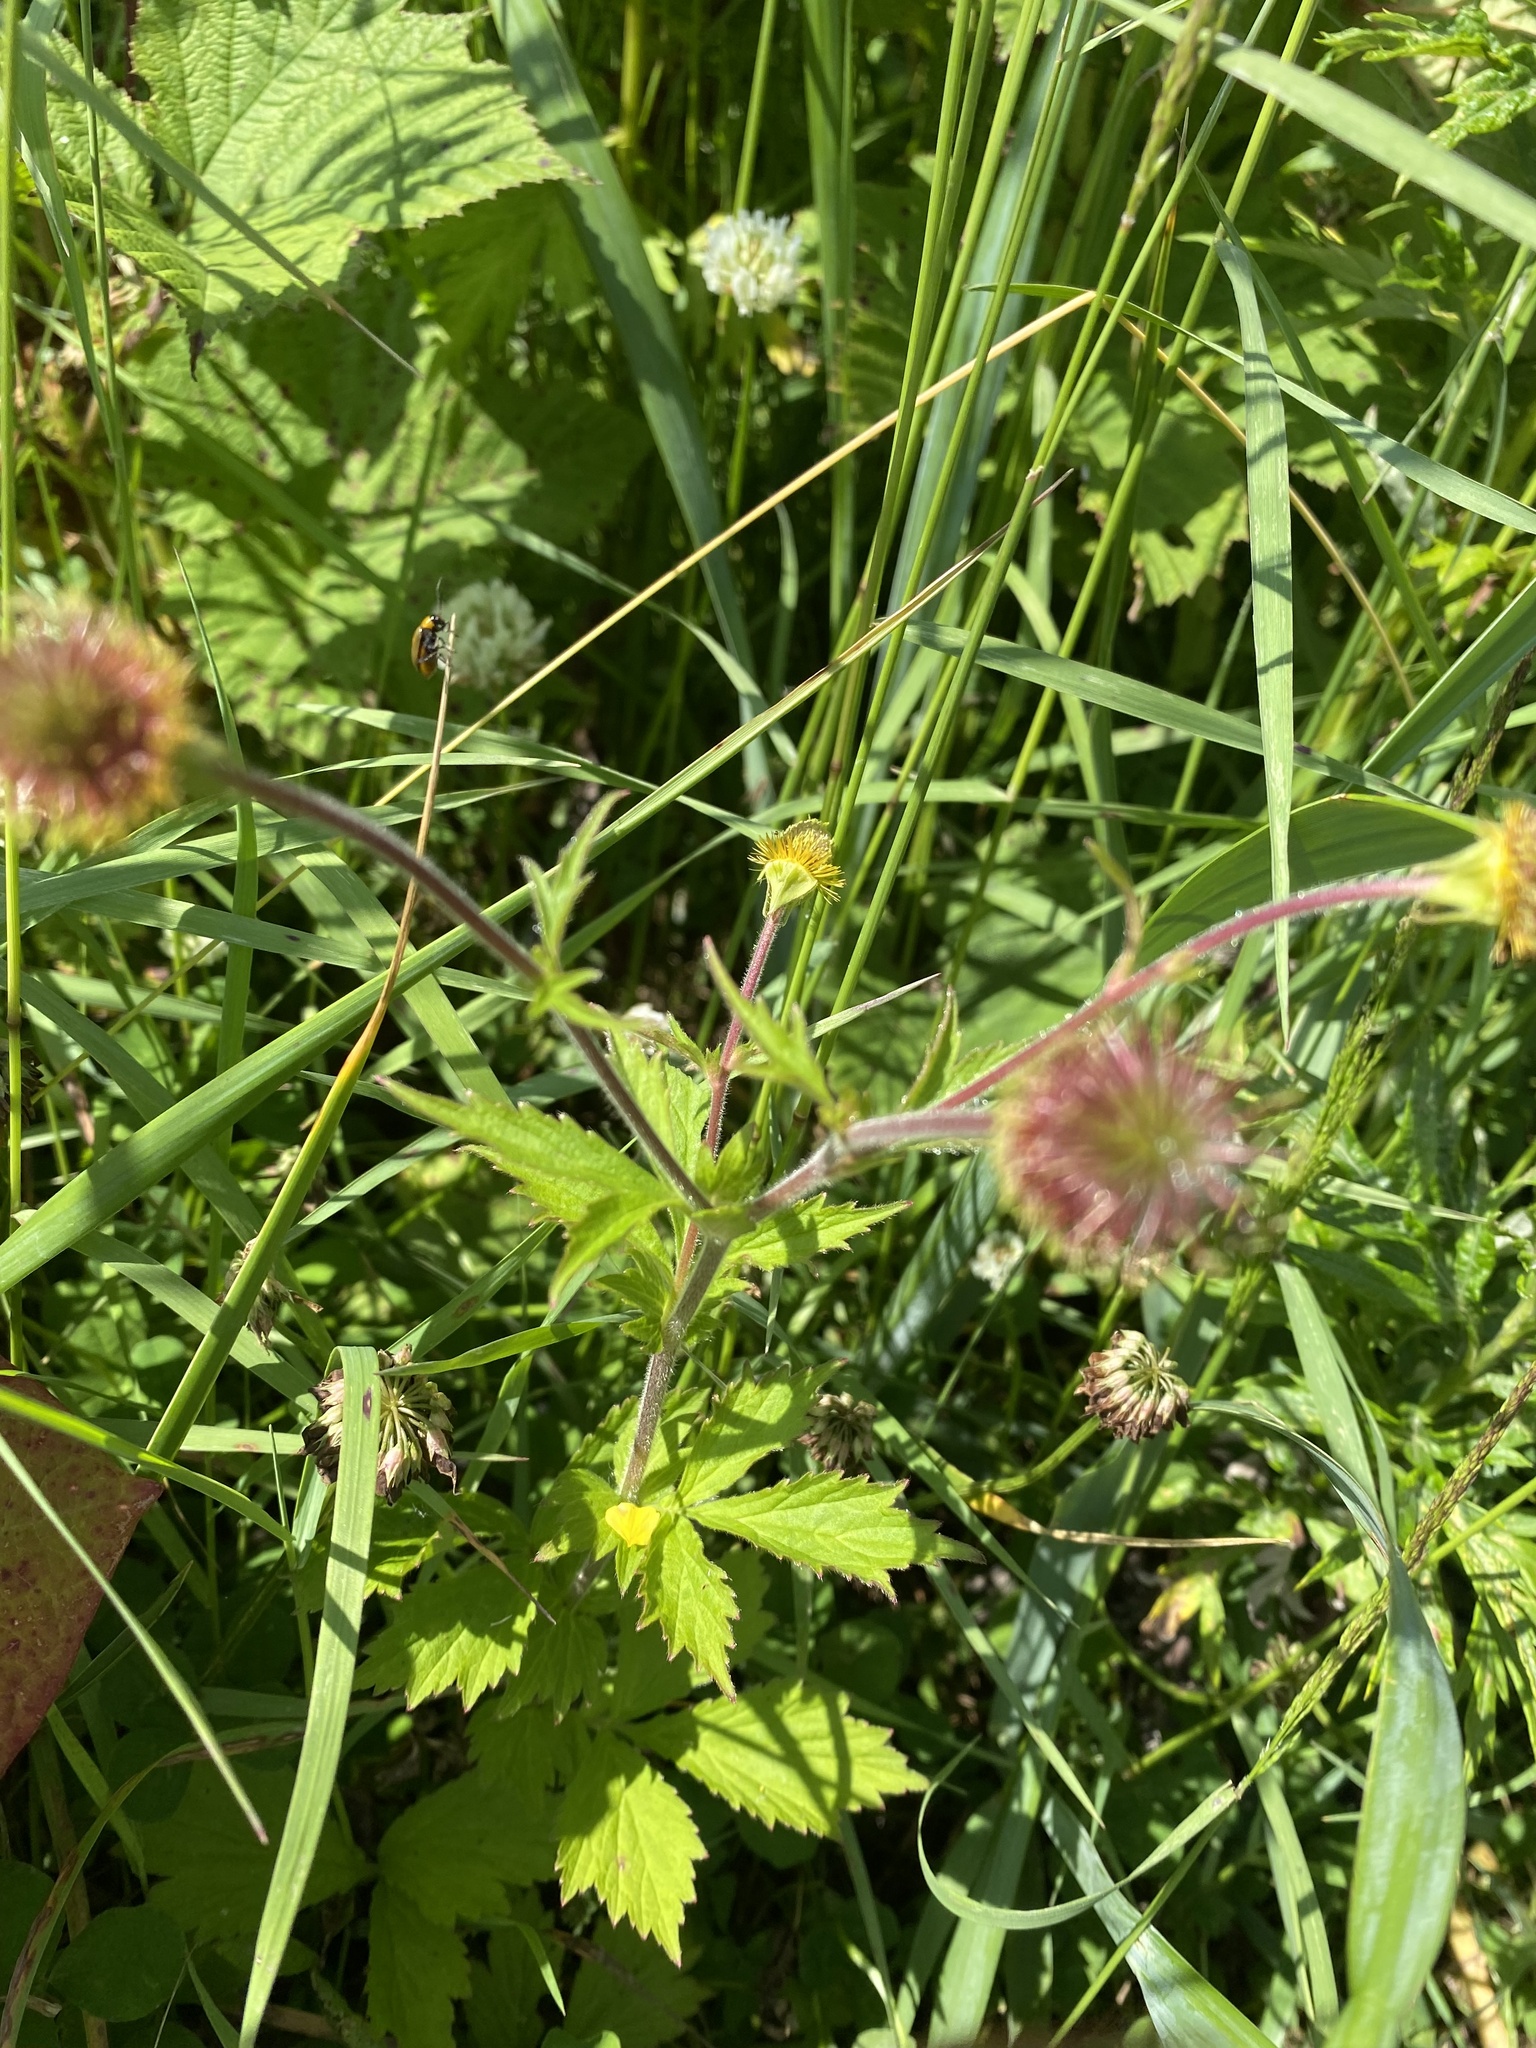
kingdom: Plantae
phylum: Tracheophyta
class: Magnoliopsida
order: Rosales
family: Rosaceae
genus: Geum
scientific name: Geum aleppicum
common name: Yellow avens
